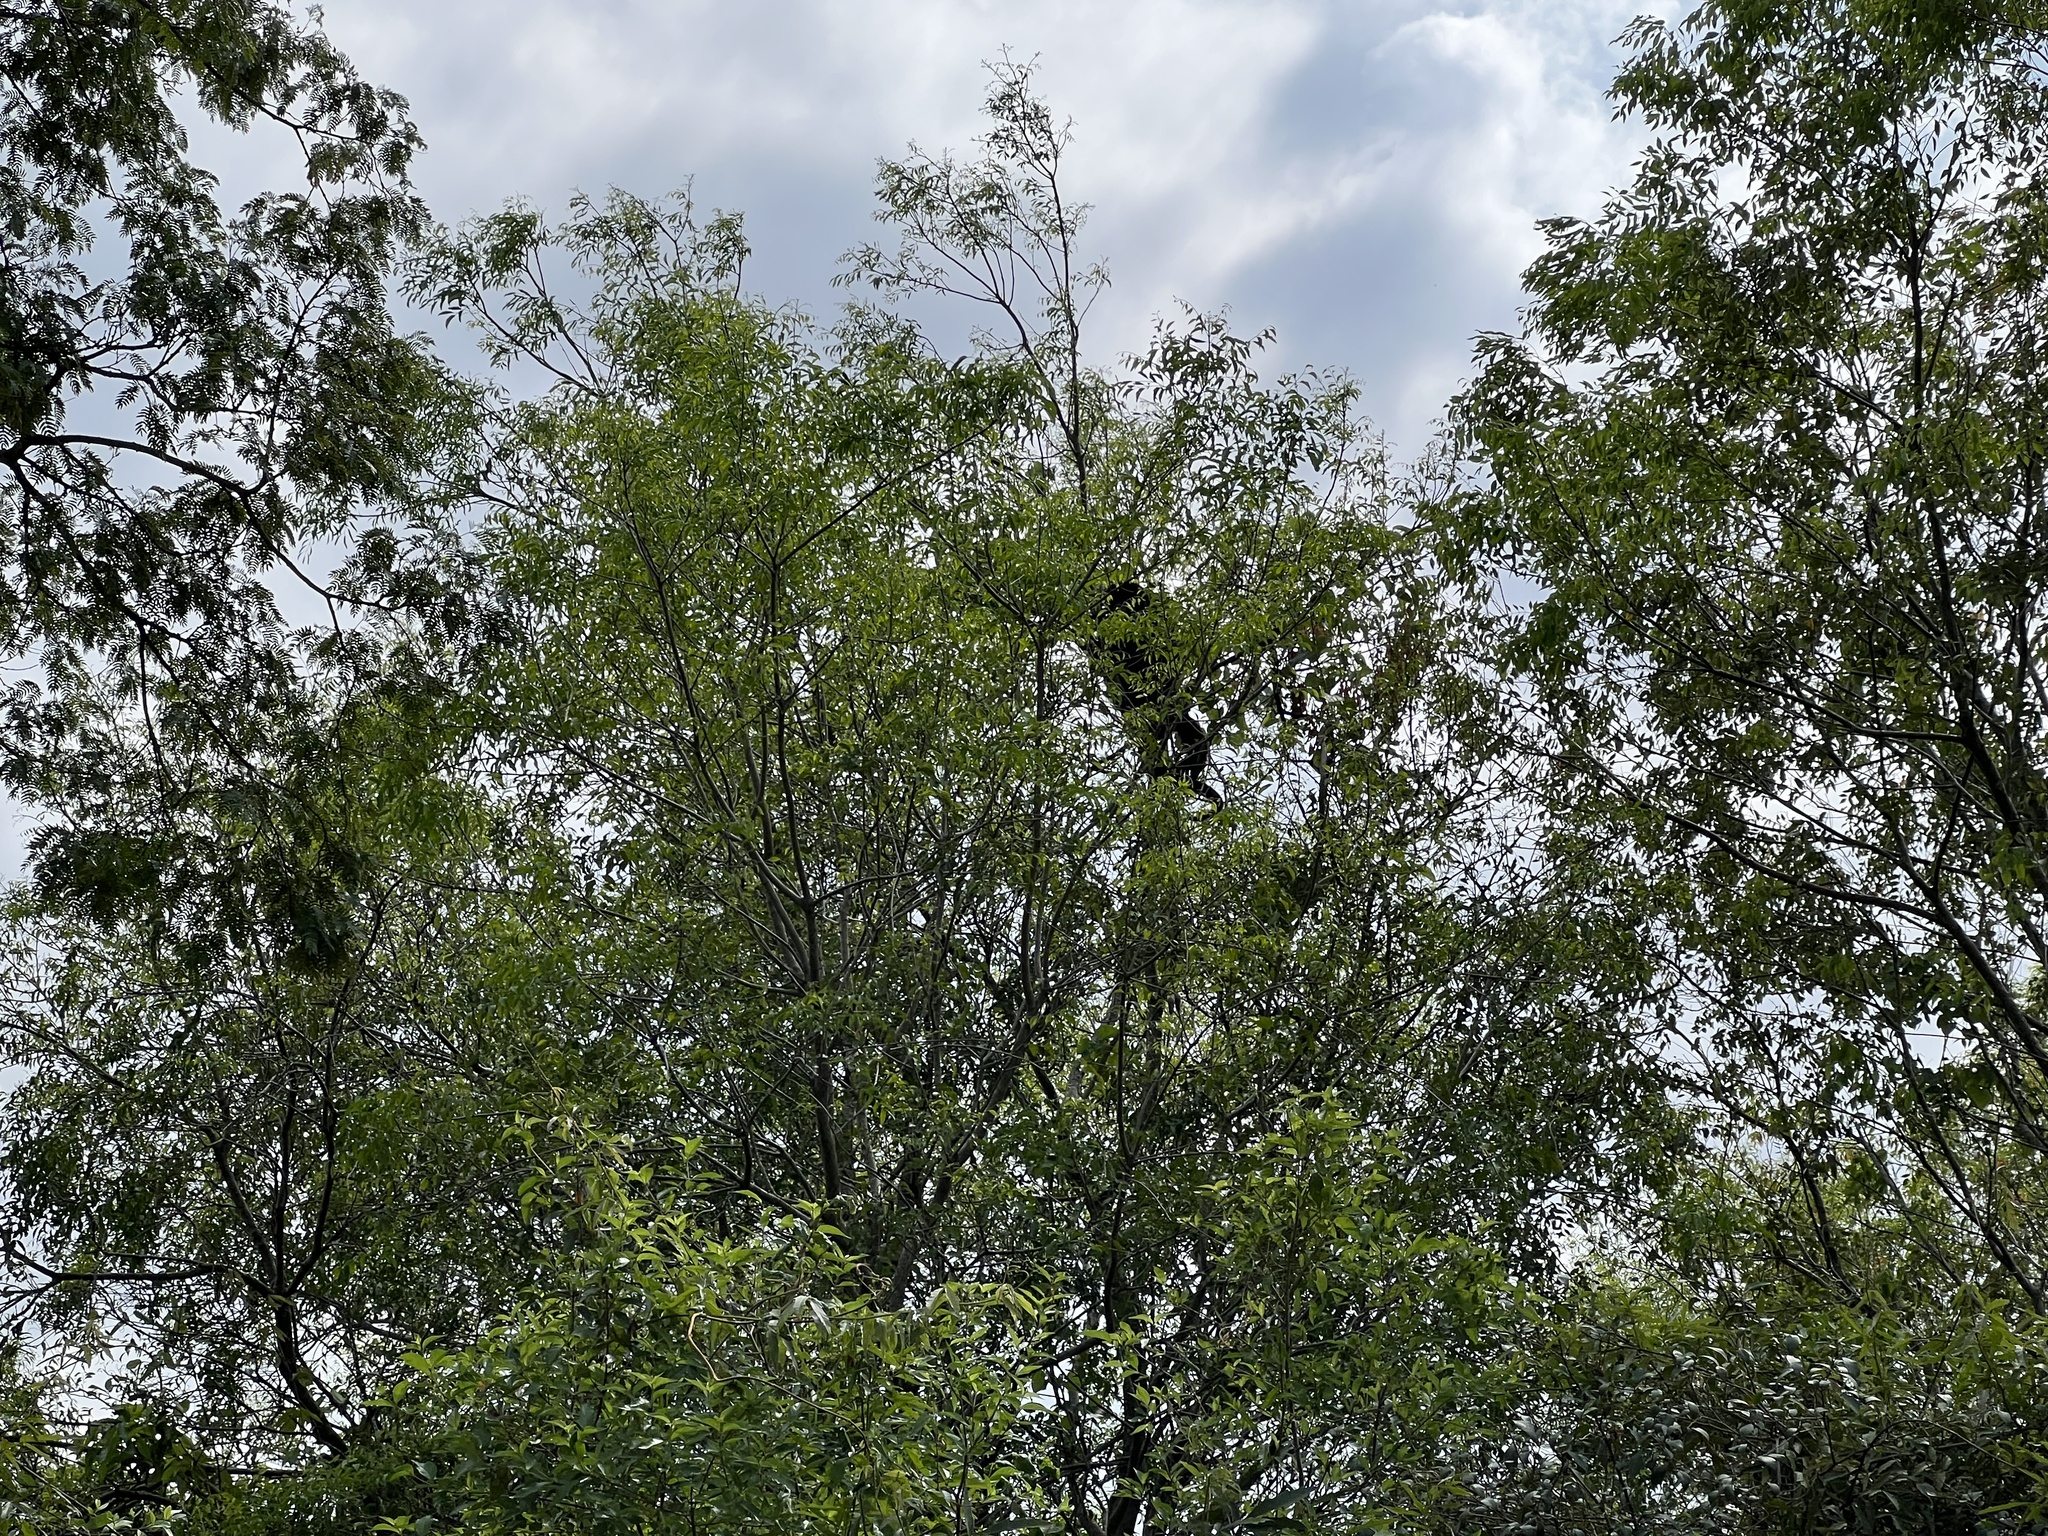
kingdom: Animalia
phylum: Chordata
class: Mammalia
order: Primates
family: Atelidae
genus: Alouatta
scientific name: Alouatta caraya
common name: Black howler
